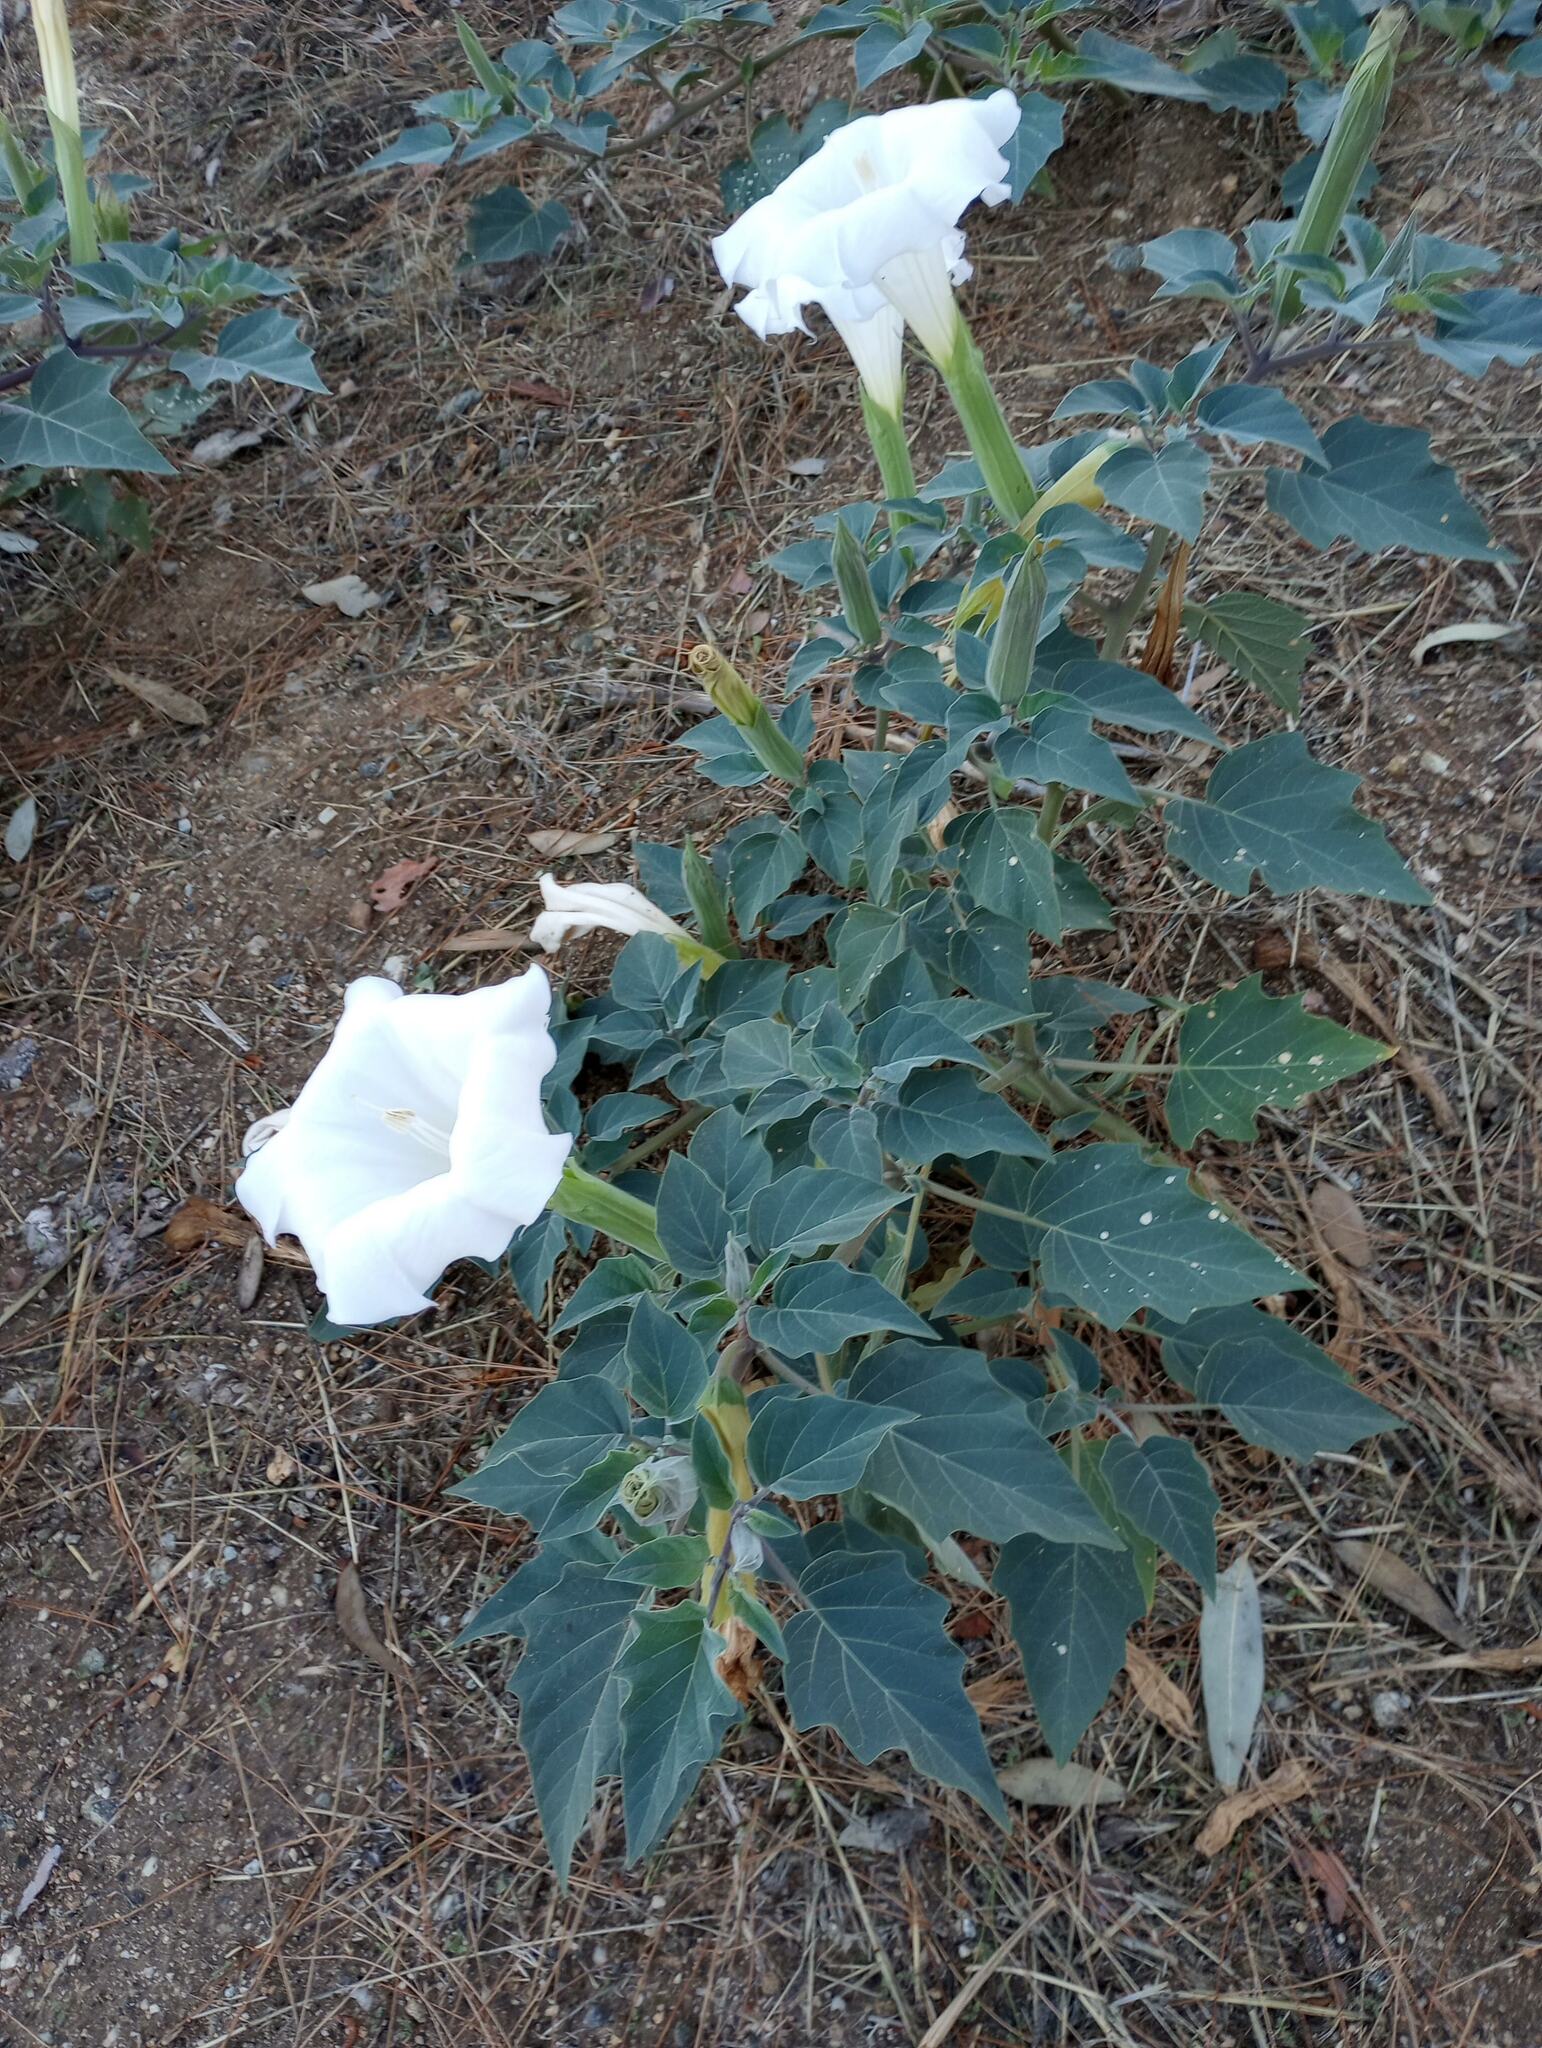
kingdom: Plantae
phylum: Tracheophyta
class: Magnoliopsida
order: Solanales
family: Solanaceae
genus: Datura
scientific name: Datura wrightii
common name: Sacred thorn-apple
